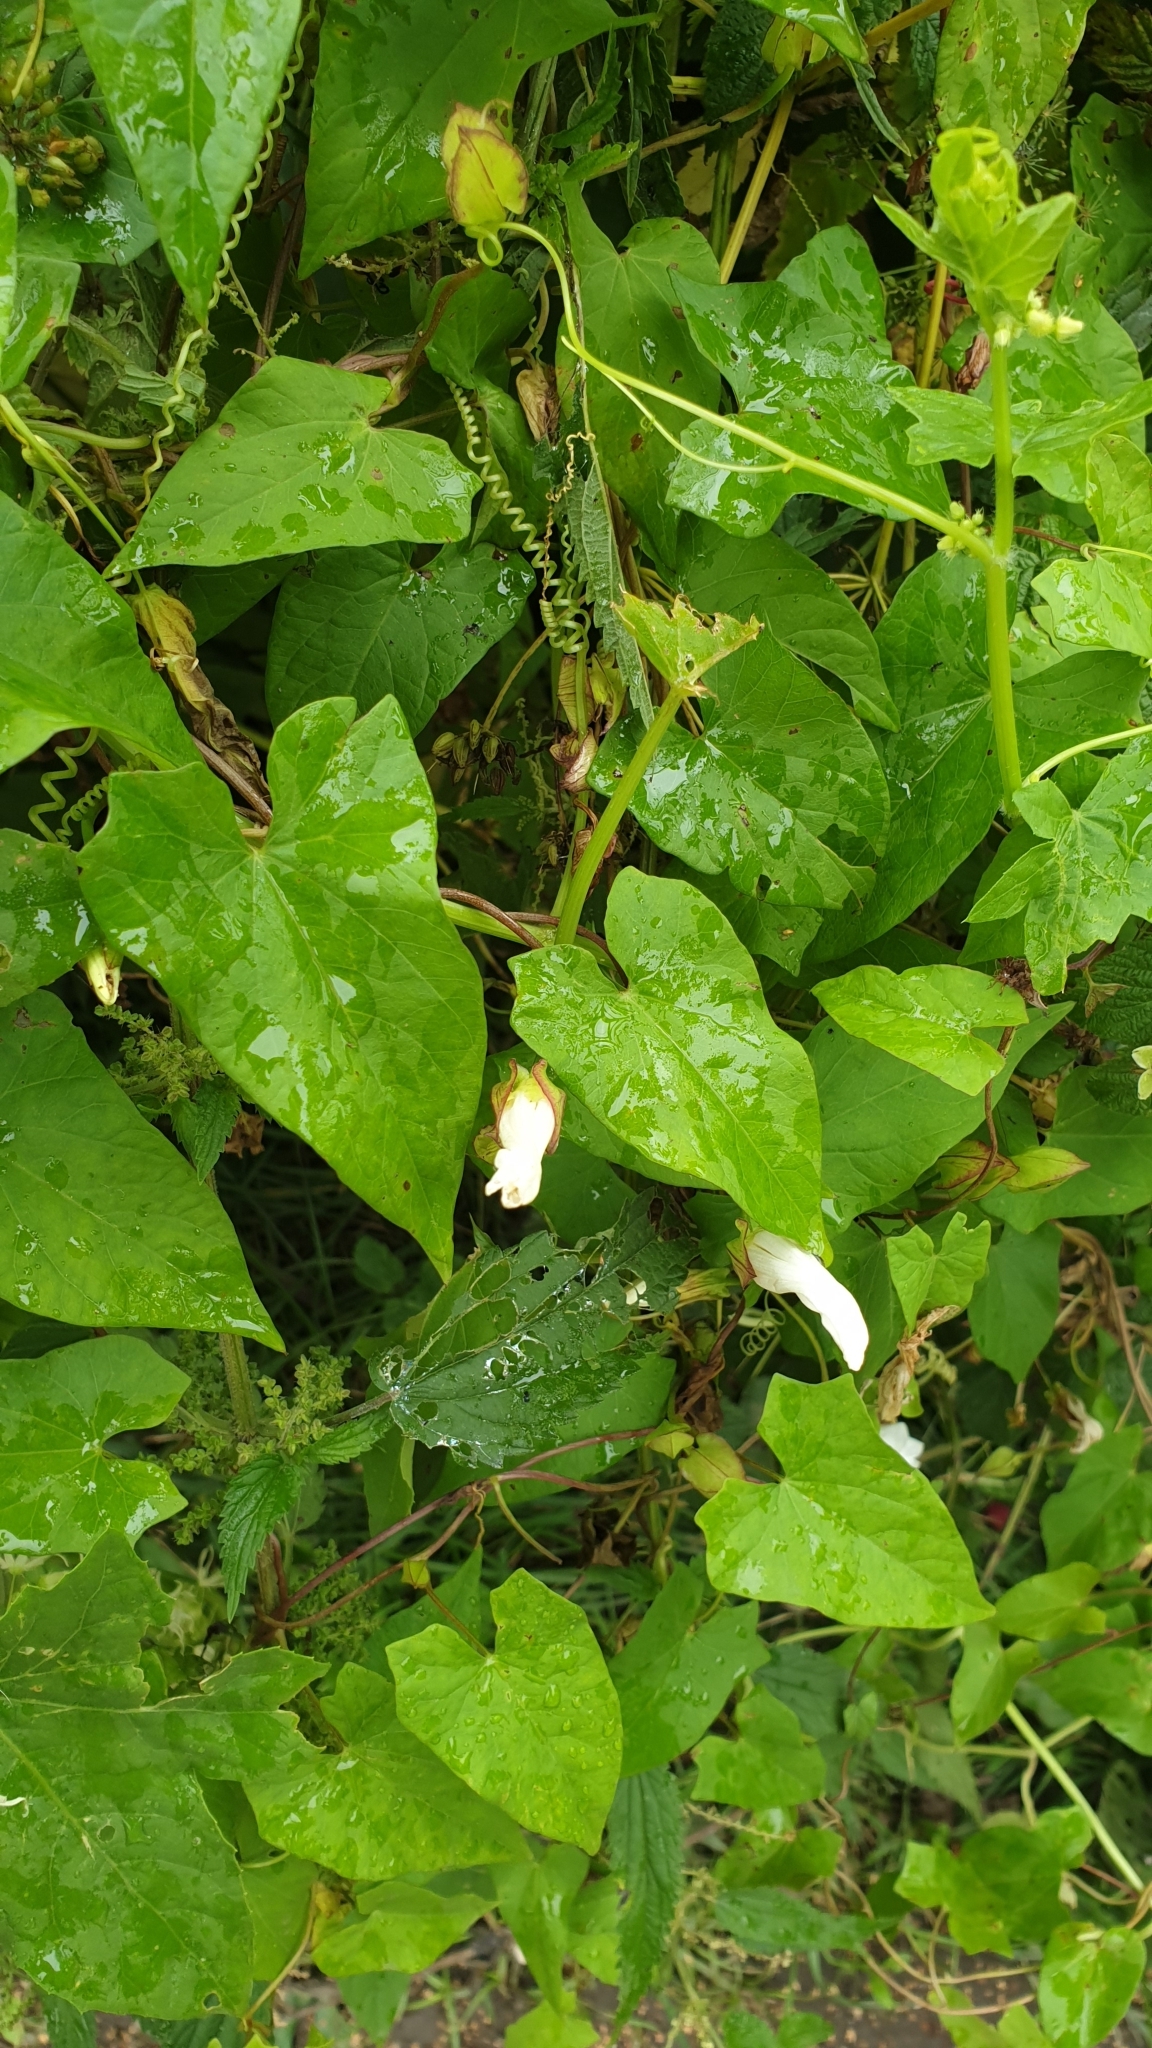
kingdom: Plantae
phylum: Tracheophyta
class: Magnoliopsida
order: Solanales
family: Convolvulaceae
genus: Calystegia
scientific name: Calystegia sepium
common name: Hedge bindweed
